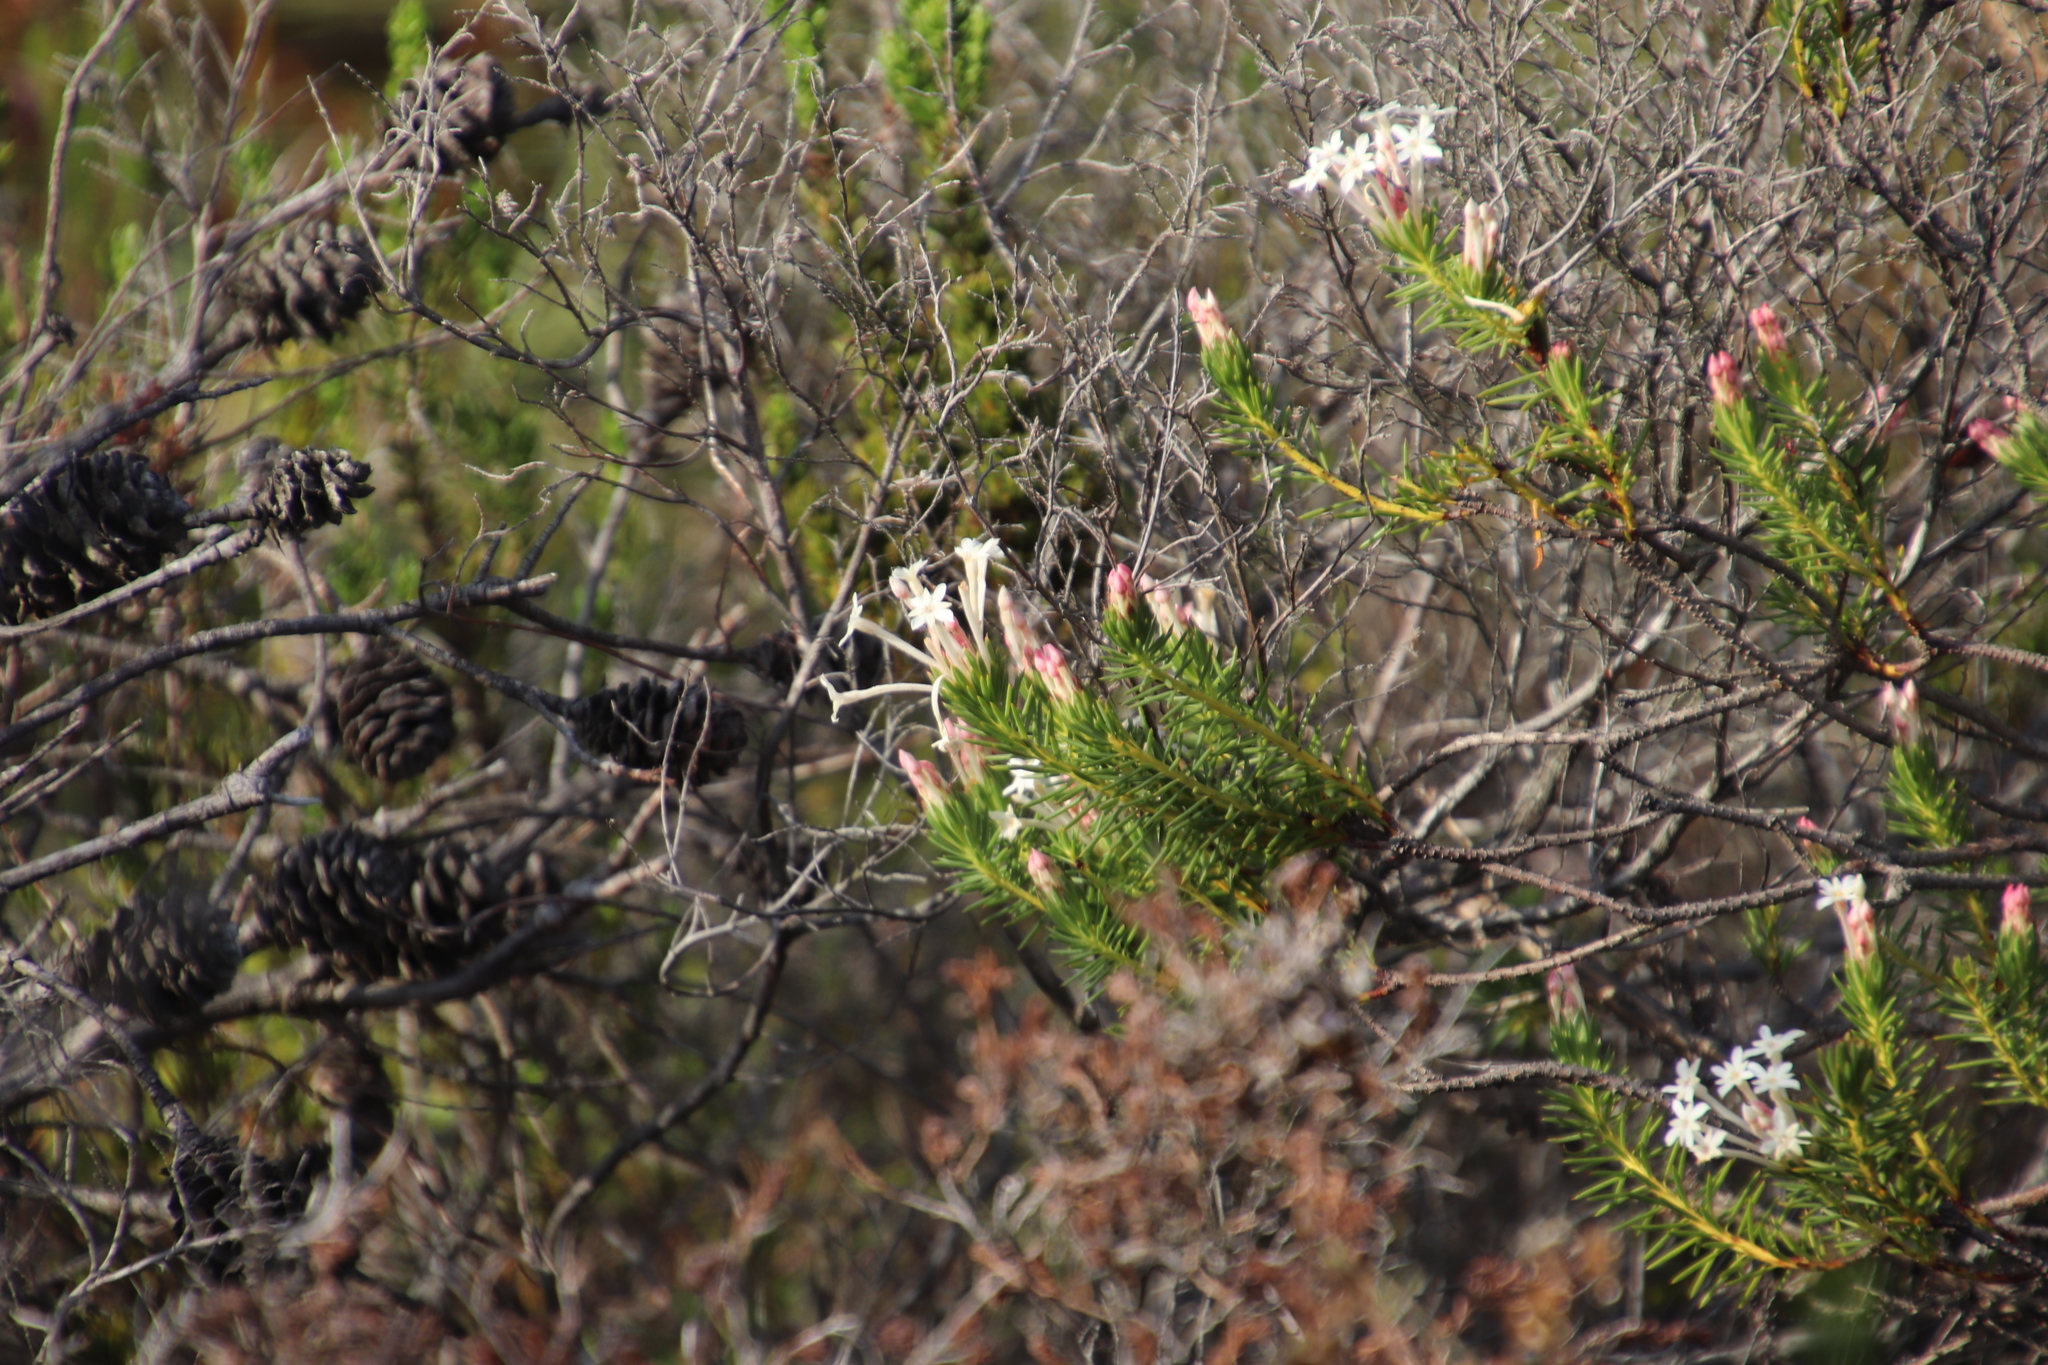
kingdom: Plantae
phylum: Tracheophyta
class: Magnoliopsida
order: Malvales
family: Thymelaeaceae
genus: Gnidia
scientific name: Gnidia pinifolia
